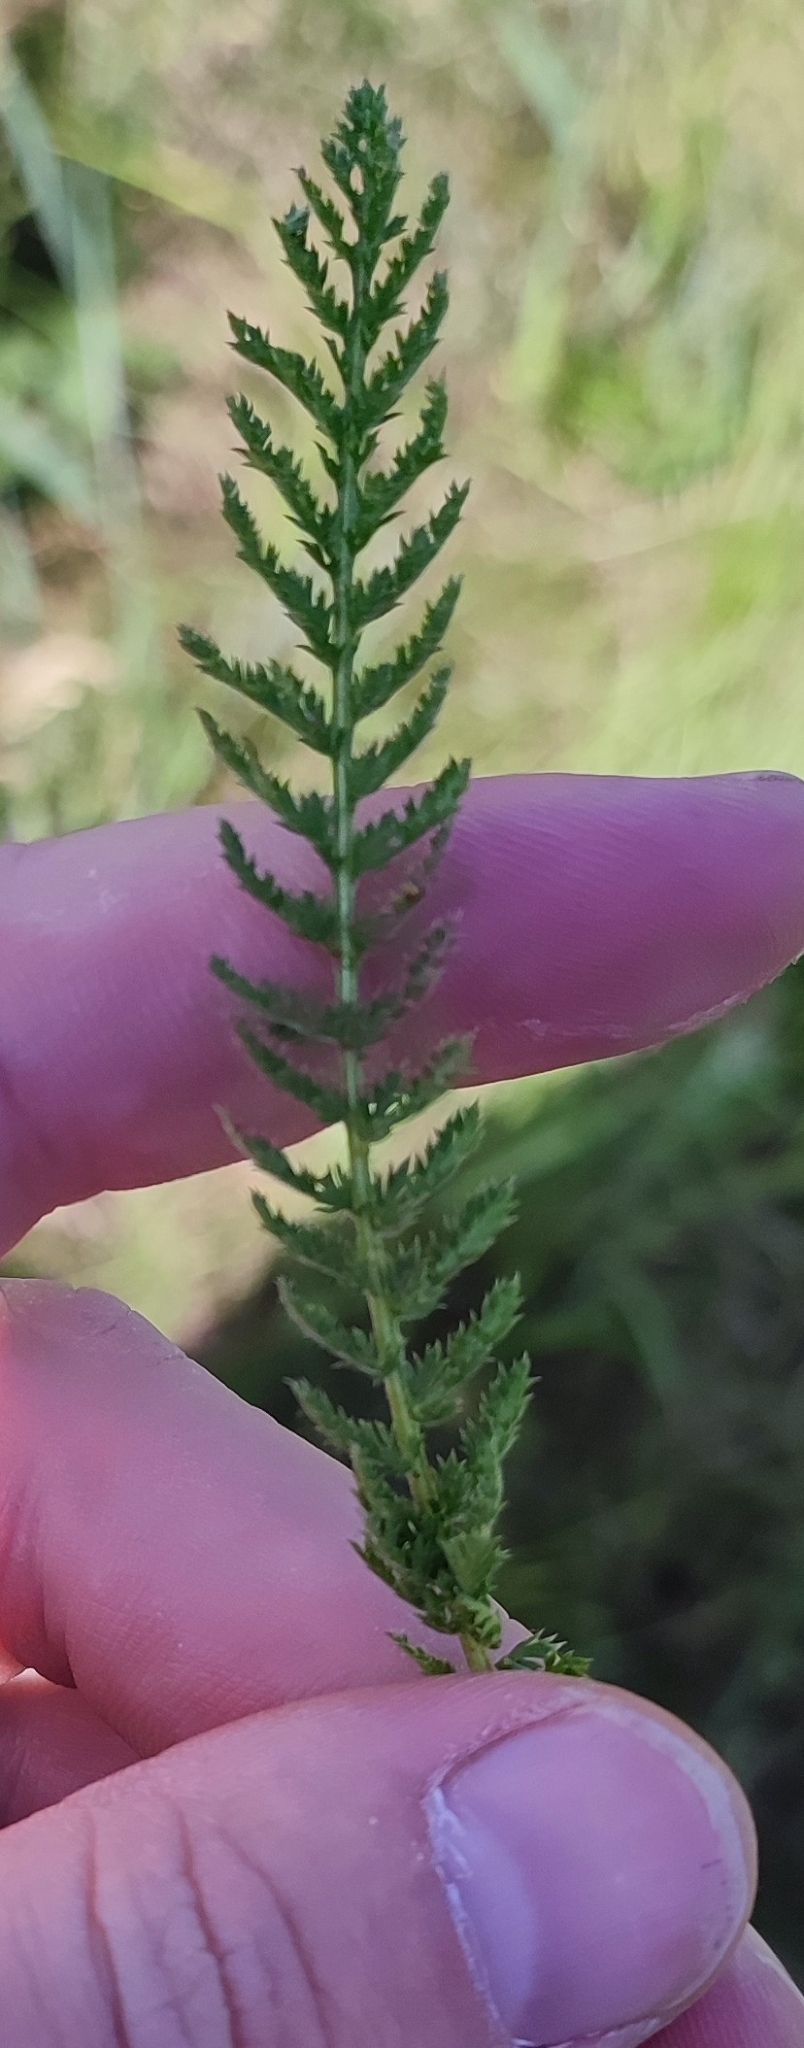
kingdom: Plantae
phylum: Tracheophyta
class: Magnoliopsida
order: Asterales
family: Asteraceae
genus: Achillea
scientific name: Achillea millefolium
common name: Yarrow
